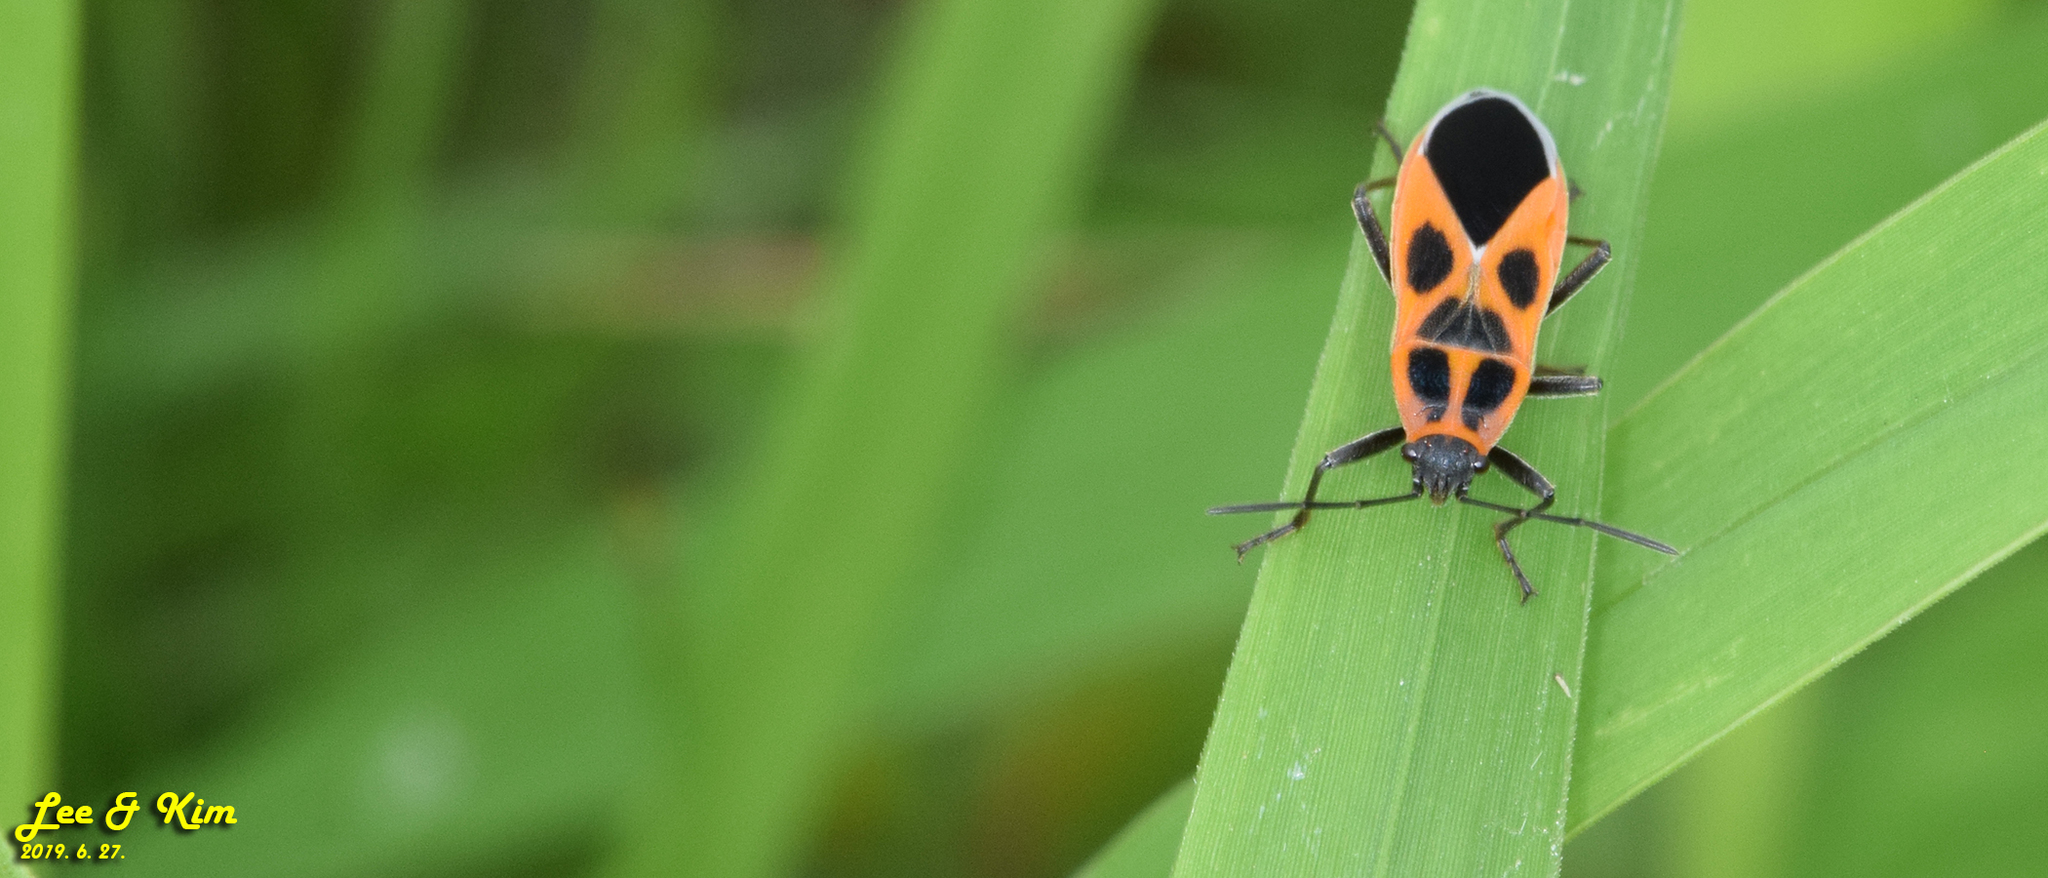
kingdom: Animalia
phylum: Arthropoda
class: Insecta
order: Hemiptera
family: Lygaeidae
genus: Tropidothorax
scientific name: Tropidothorax cruciger
